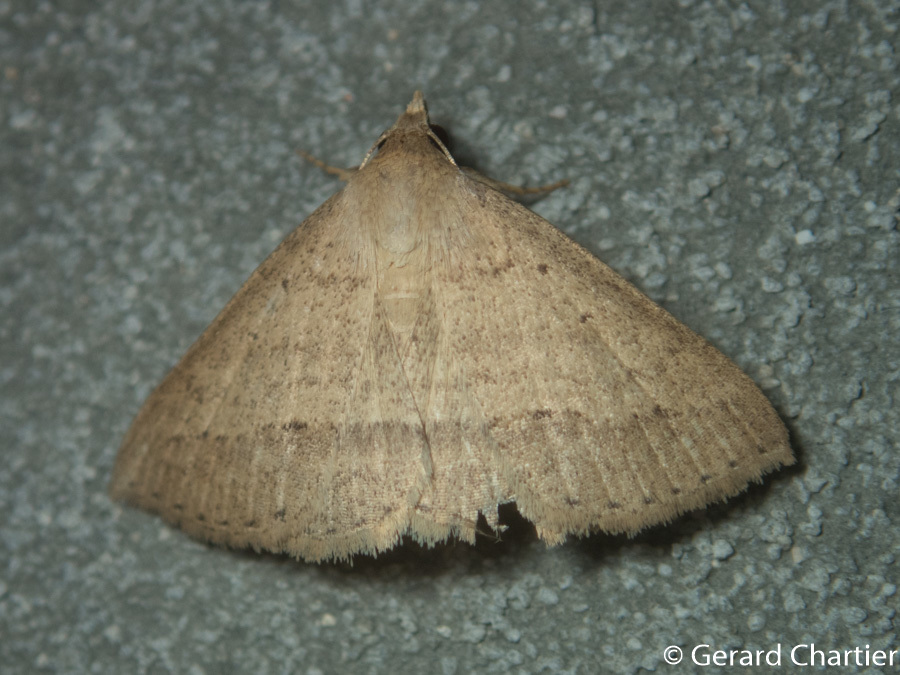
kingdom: Animalia
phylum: Arthropoda
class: Insecta
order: Lepidoptera
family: Erebidae
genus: Gesonia
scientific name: Gesonia obeditalis
